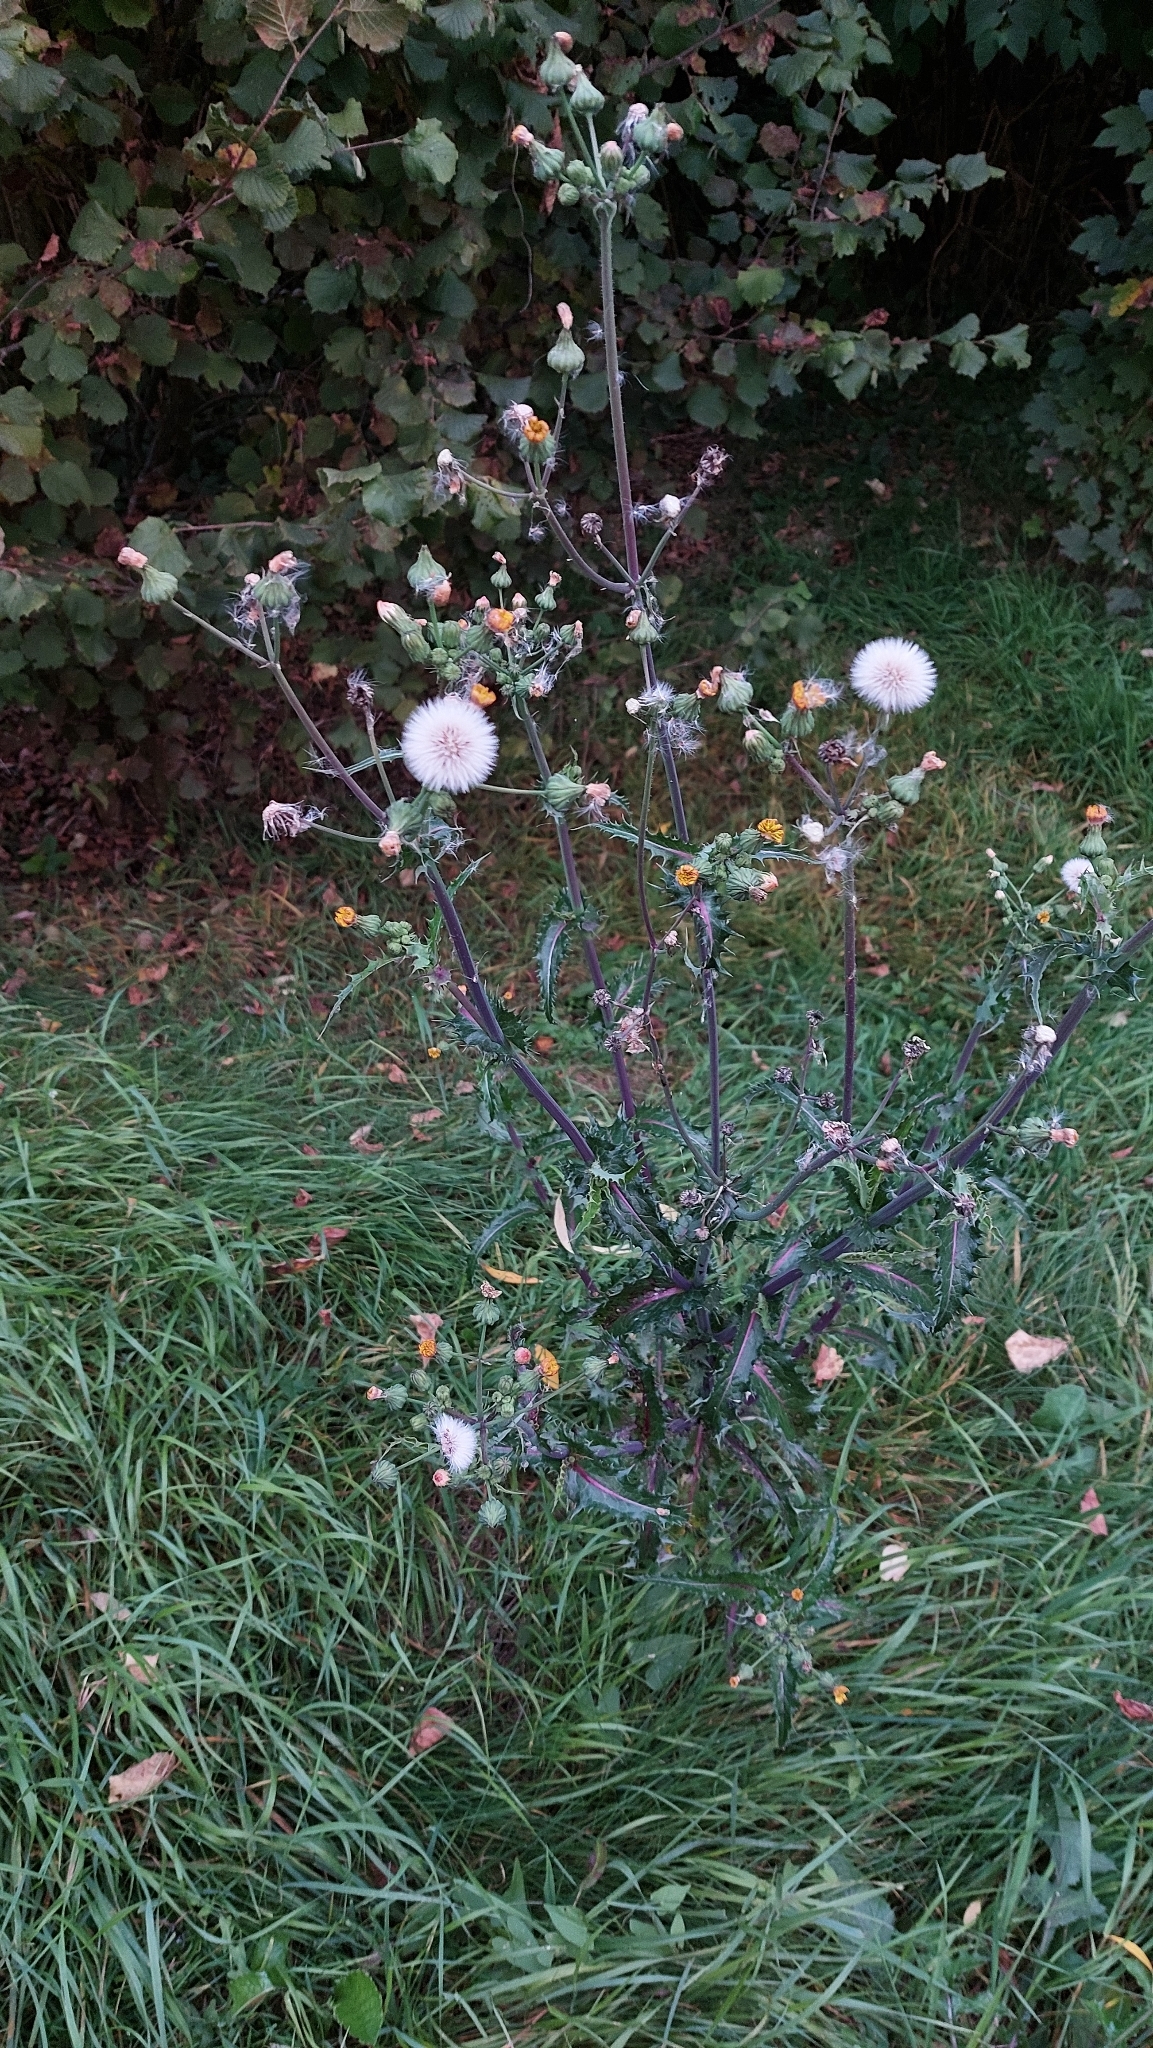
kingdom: Plantae
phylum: Tracheophyta
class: Magnoliopsida
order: Asterales
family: Asteraceae
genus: Sonchus
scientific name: Sonchus asper
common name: Prickly sow-thistle
